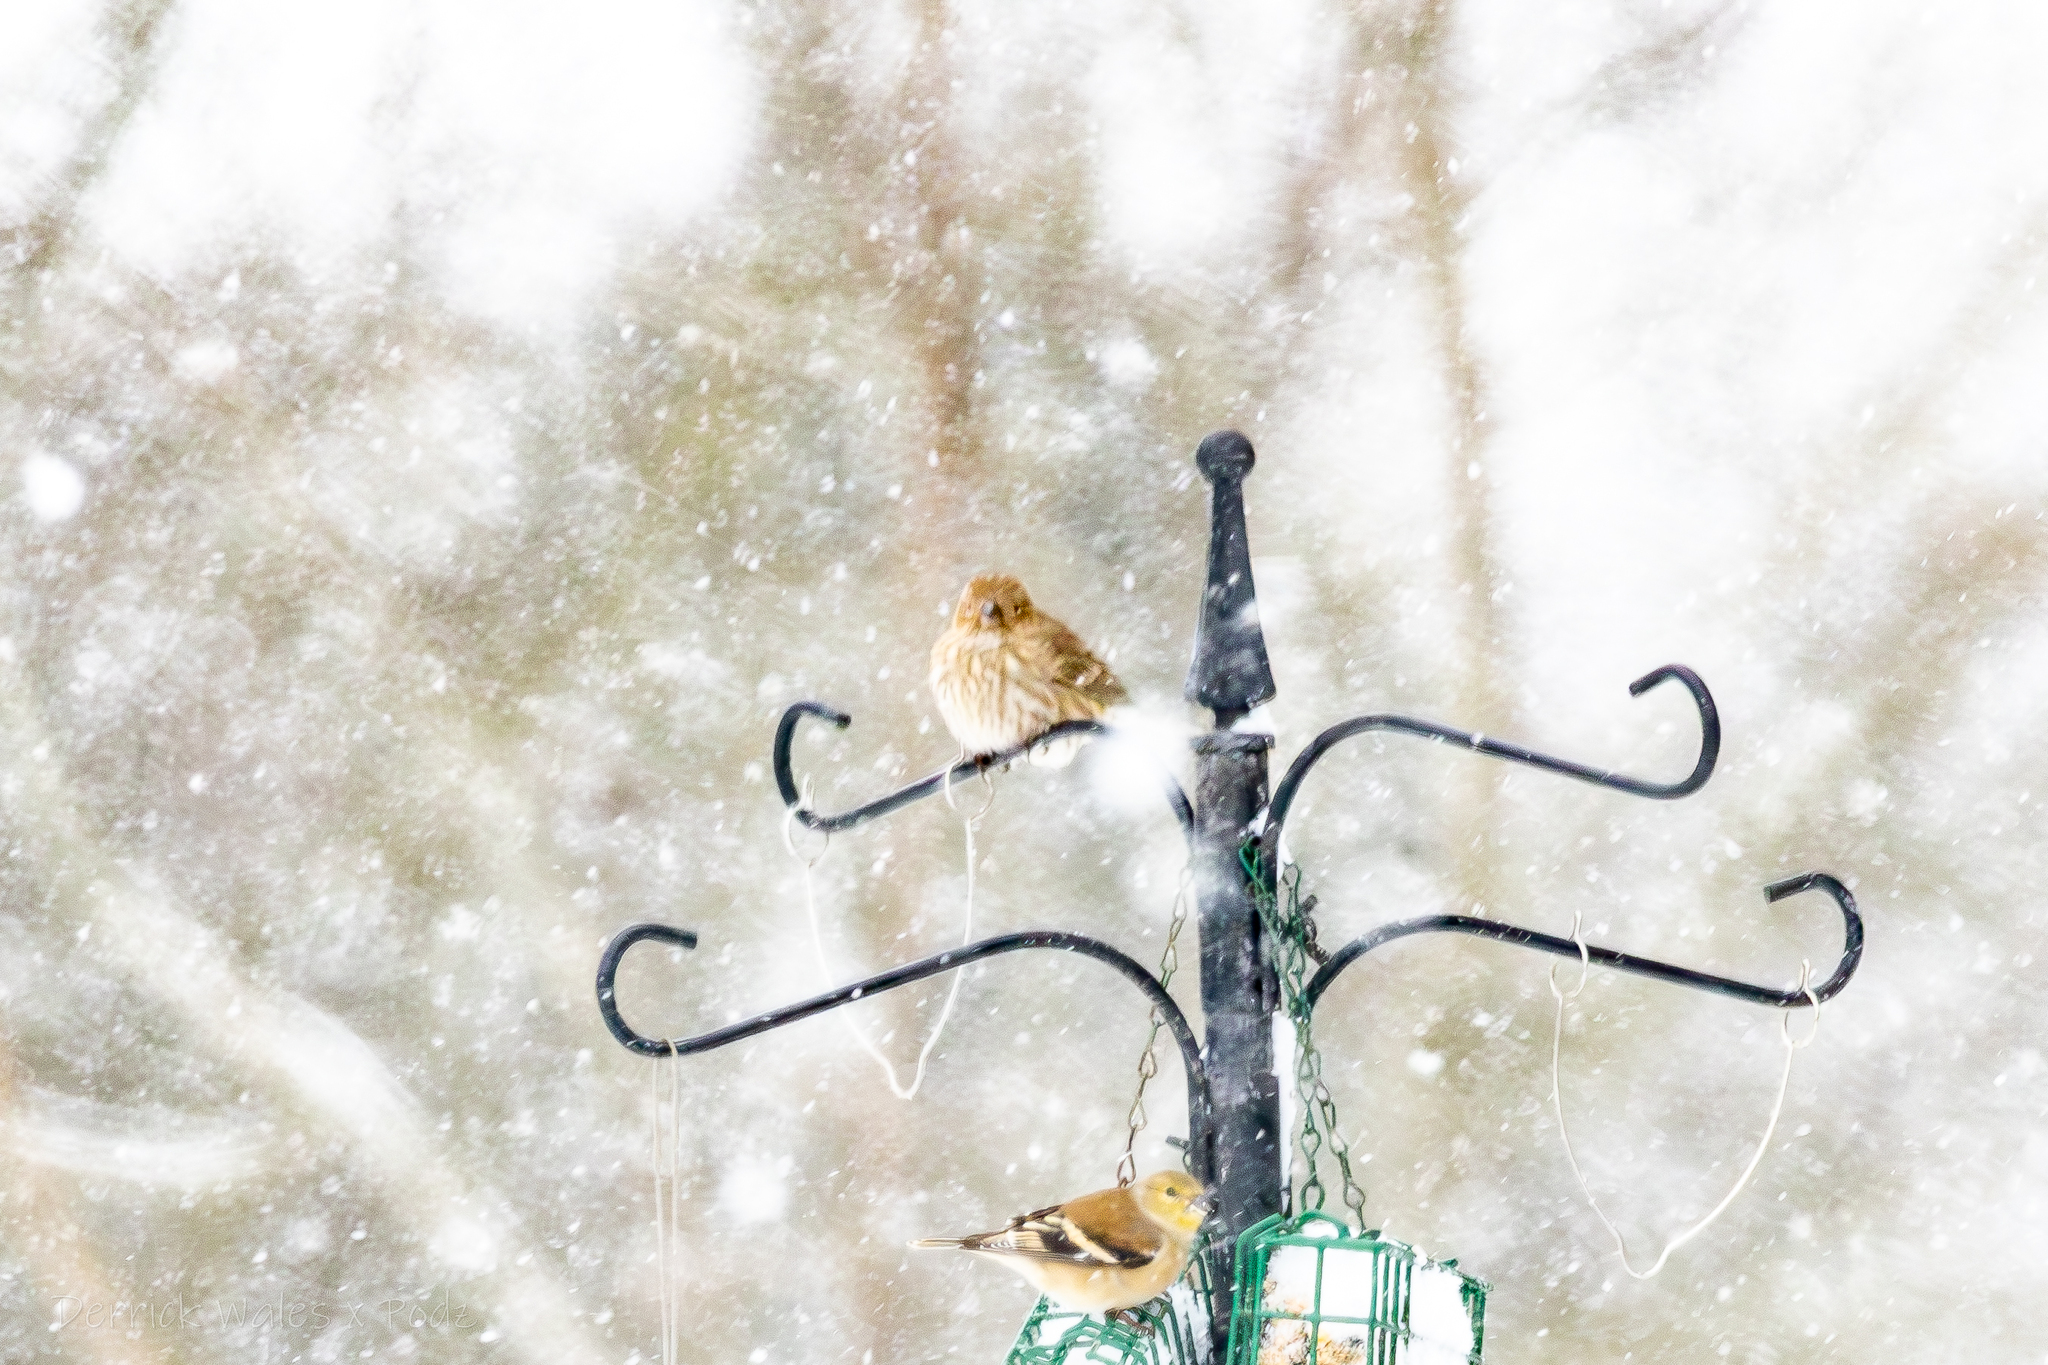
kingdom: Animalia
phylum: Chordata
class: Aves
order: Passeriformes
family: Fringillidae
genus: Haemorhous
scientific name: Haemorhous mexicanus
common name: House finch
